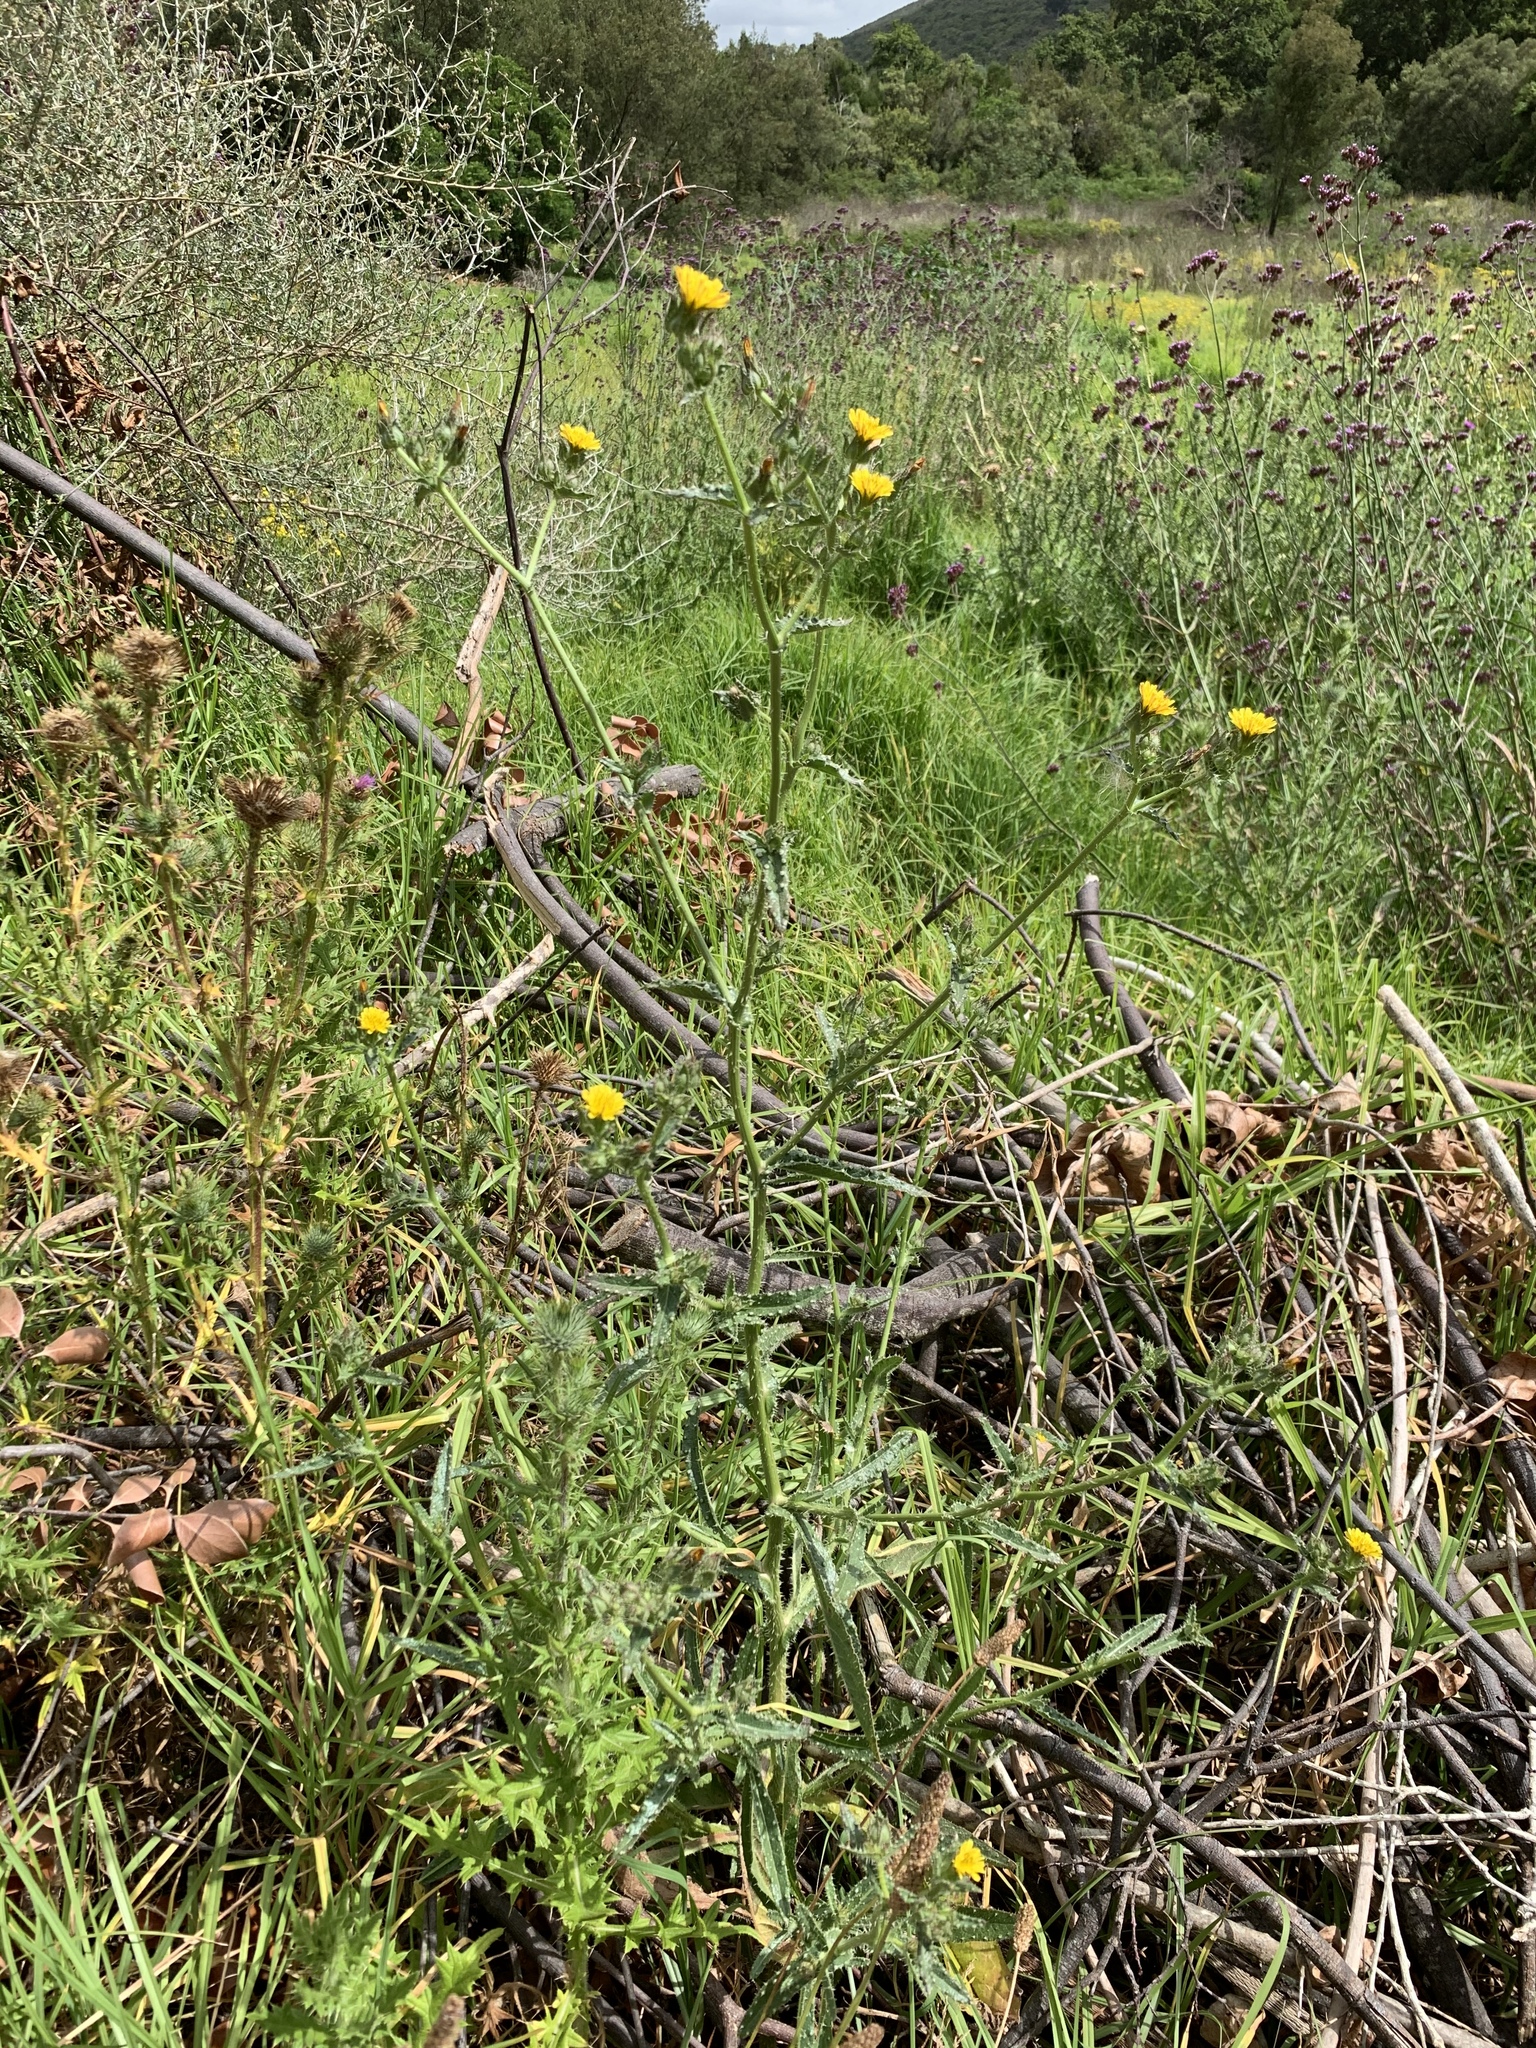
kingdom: Plantae
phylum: Tracheophyta
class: Magnoliopsida
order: Asterales
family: Asteraceae
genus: Helminthotheca
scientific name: Helminthotheca echioides
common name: Ox-tongue
